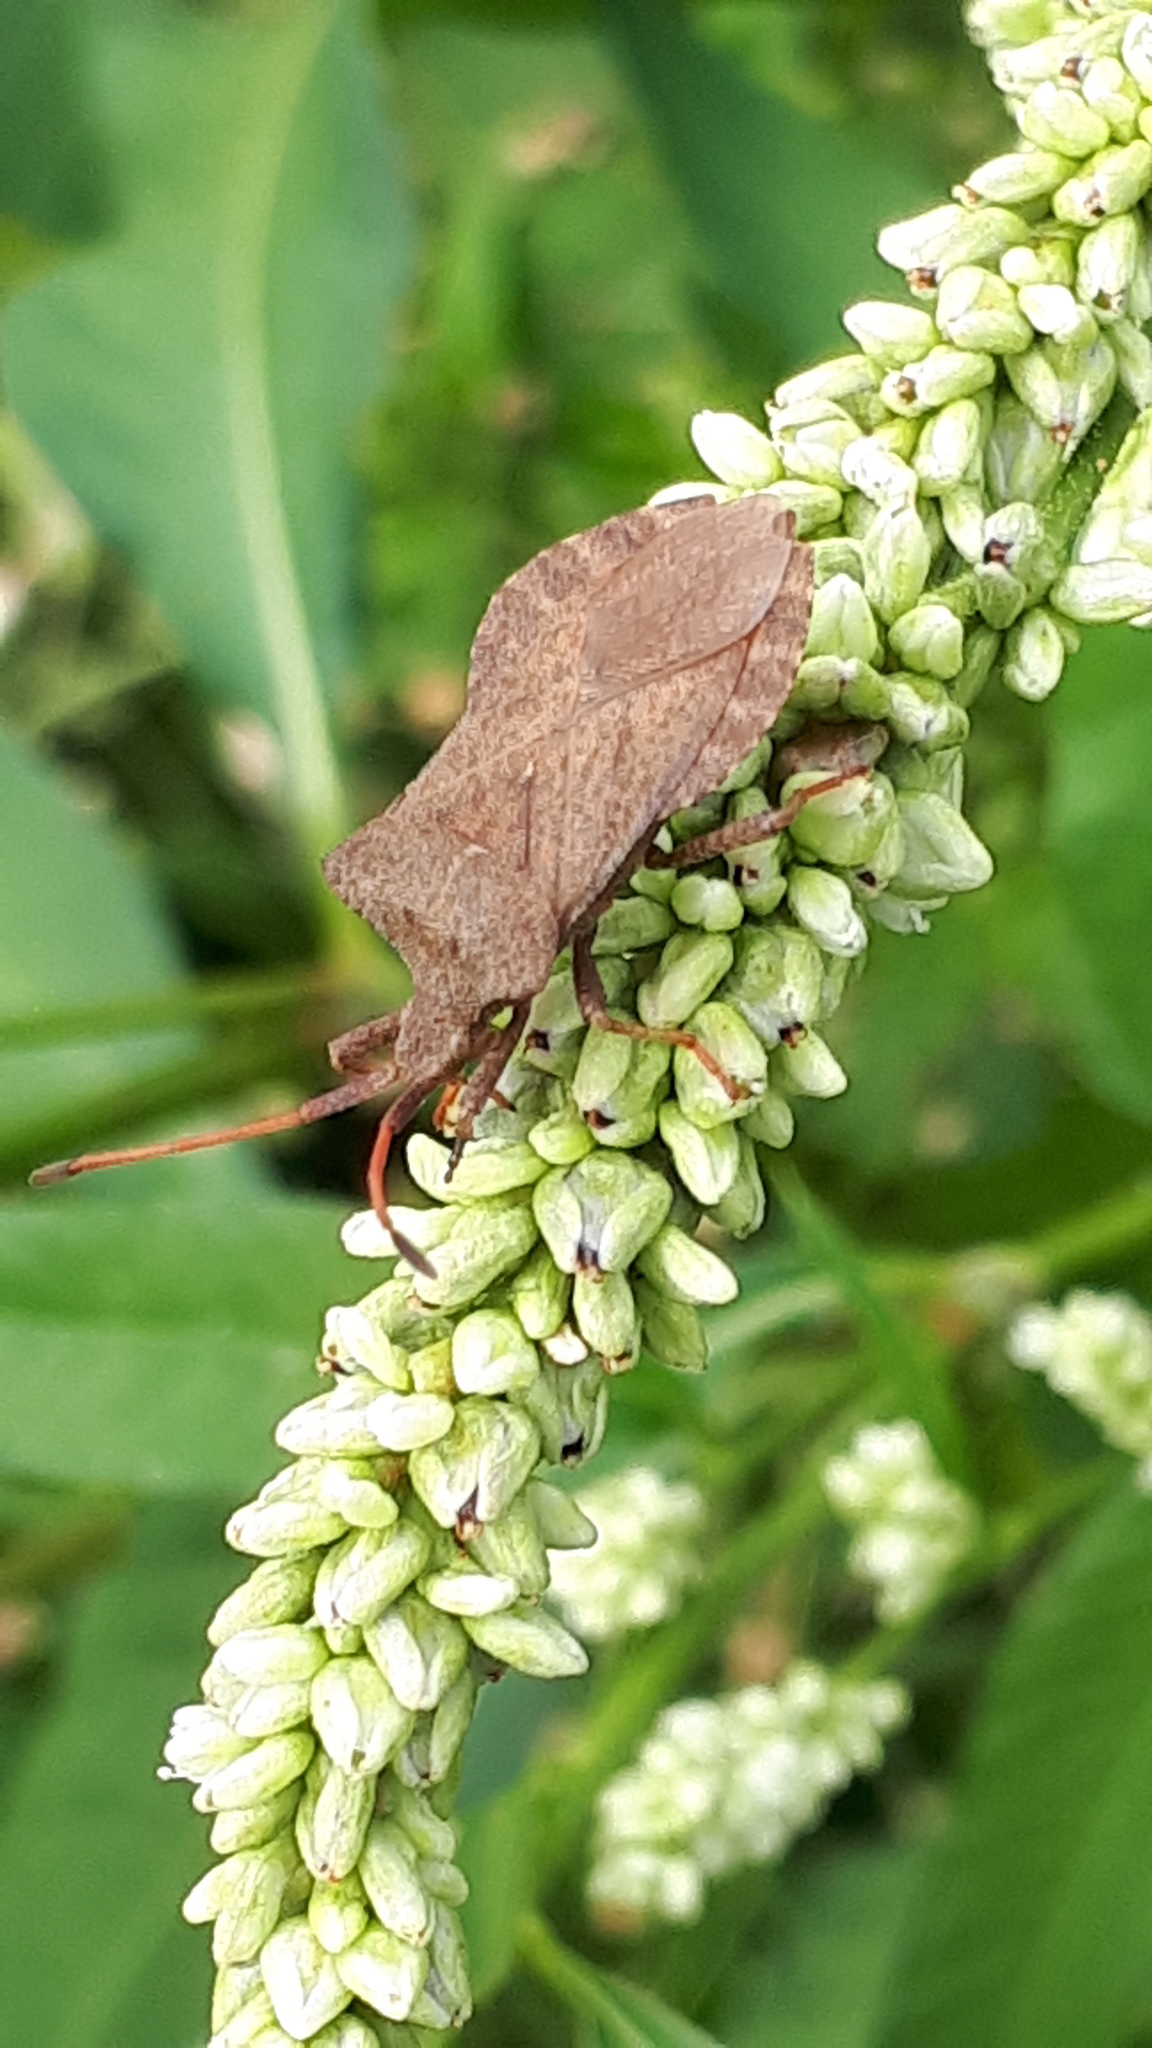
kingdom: Animalia
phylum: Arthropoda
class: Insecta
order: Hemiptera
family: Coreidae
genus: Coreus
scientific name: Coreus marginatus
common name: Dock bug
